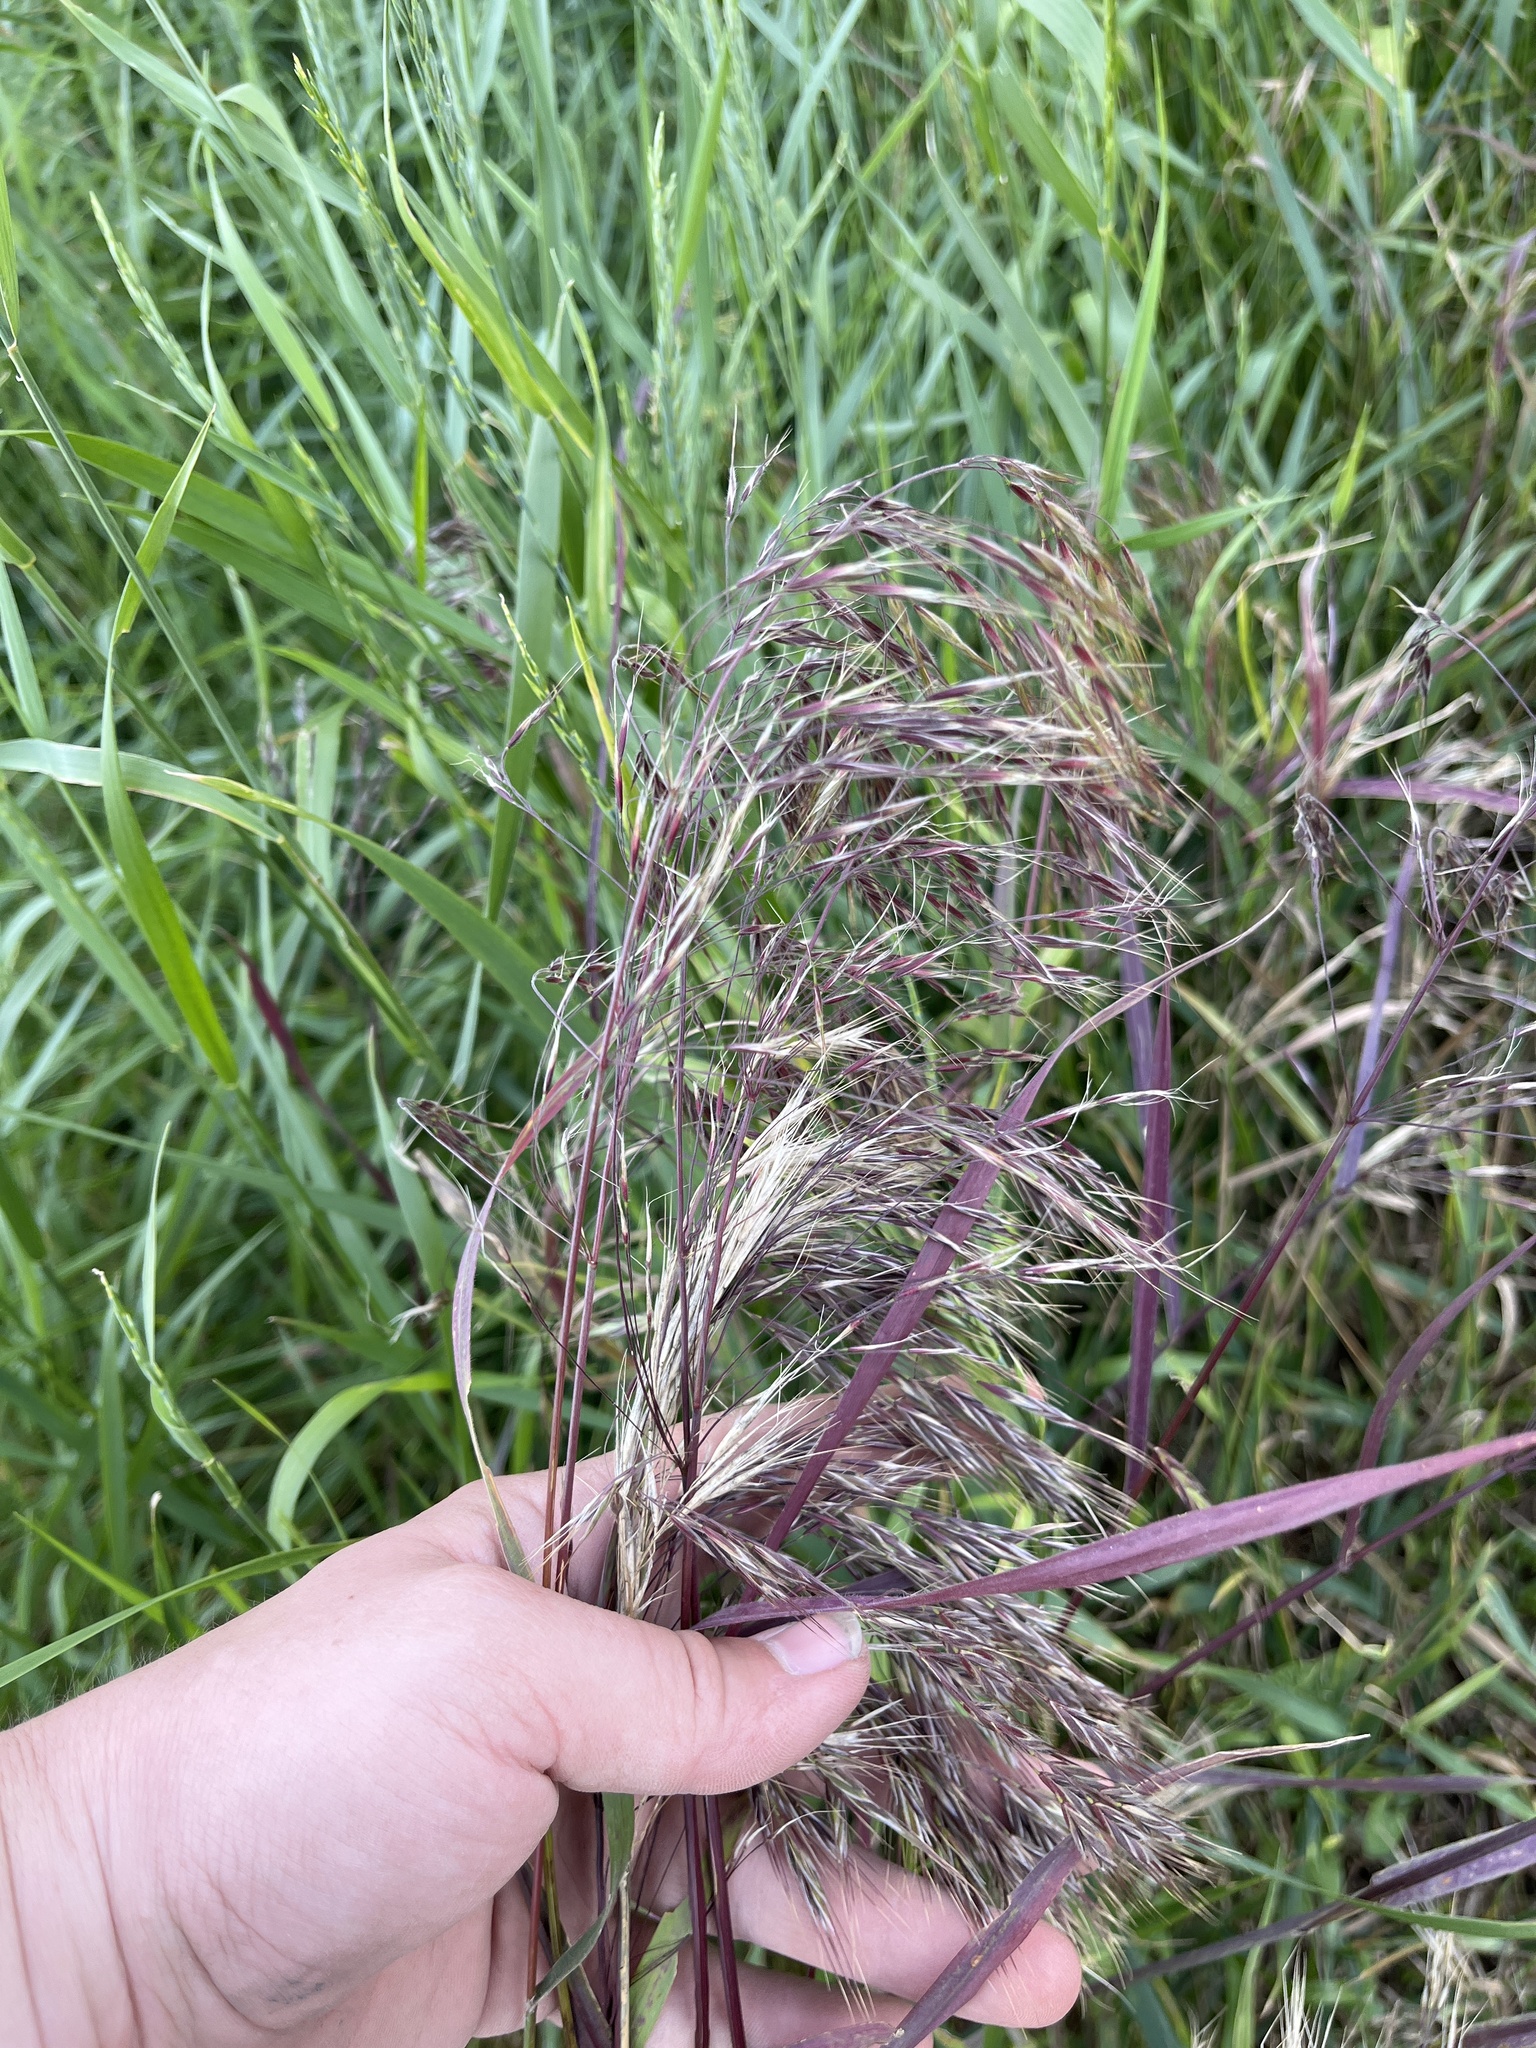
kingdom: Plantae
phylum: Tracheophyta
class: Liliopsida
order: Poales
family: Poaceae
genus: Phragmites
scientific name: Phragmites australis
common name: Common reed
